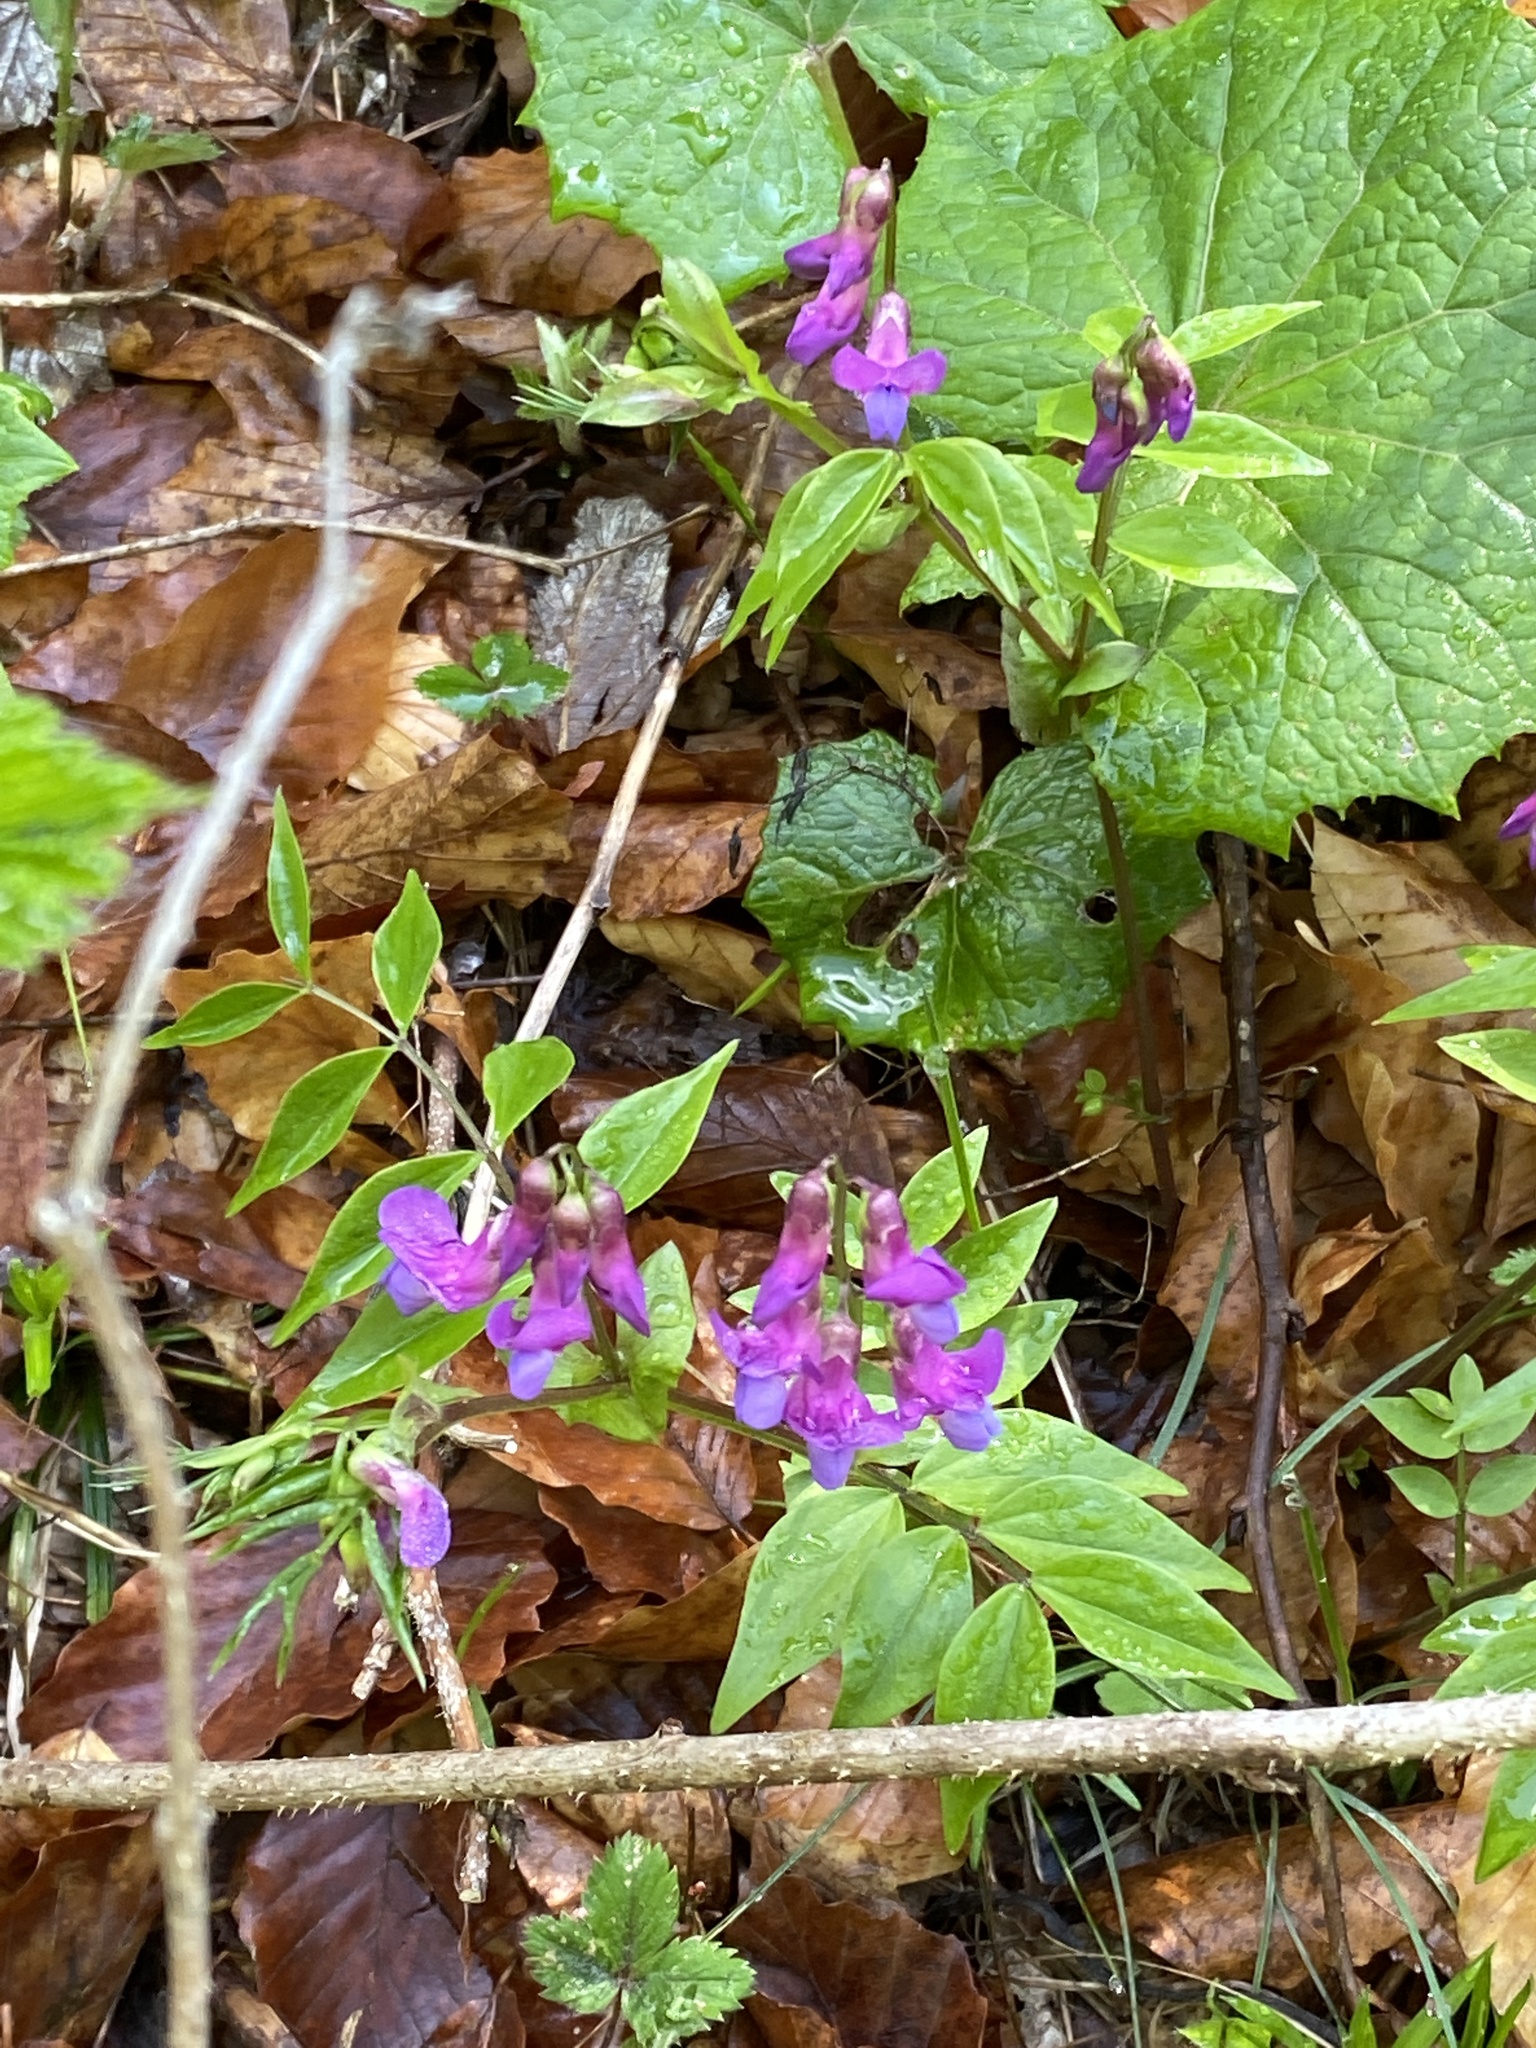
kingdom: Plantae
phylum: Tracheophyta
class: Magnoliopsida
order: Fabales
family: Fabaceae
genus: Lathyrus
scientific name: Lathyrus vernus
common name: Spring pea
